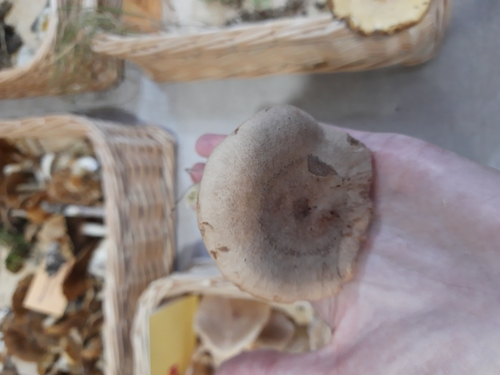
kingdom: Fungi
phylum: Basidiomycota
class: Agaricomycetes
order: Russulales
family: Russulaceae
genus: Lactarius
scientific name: Lactarius helvus
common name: Fenugreek milkcap
